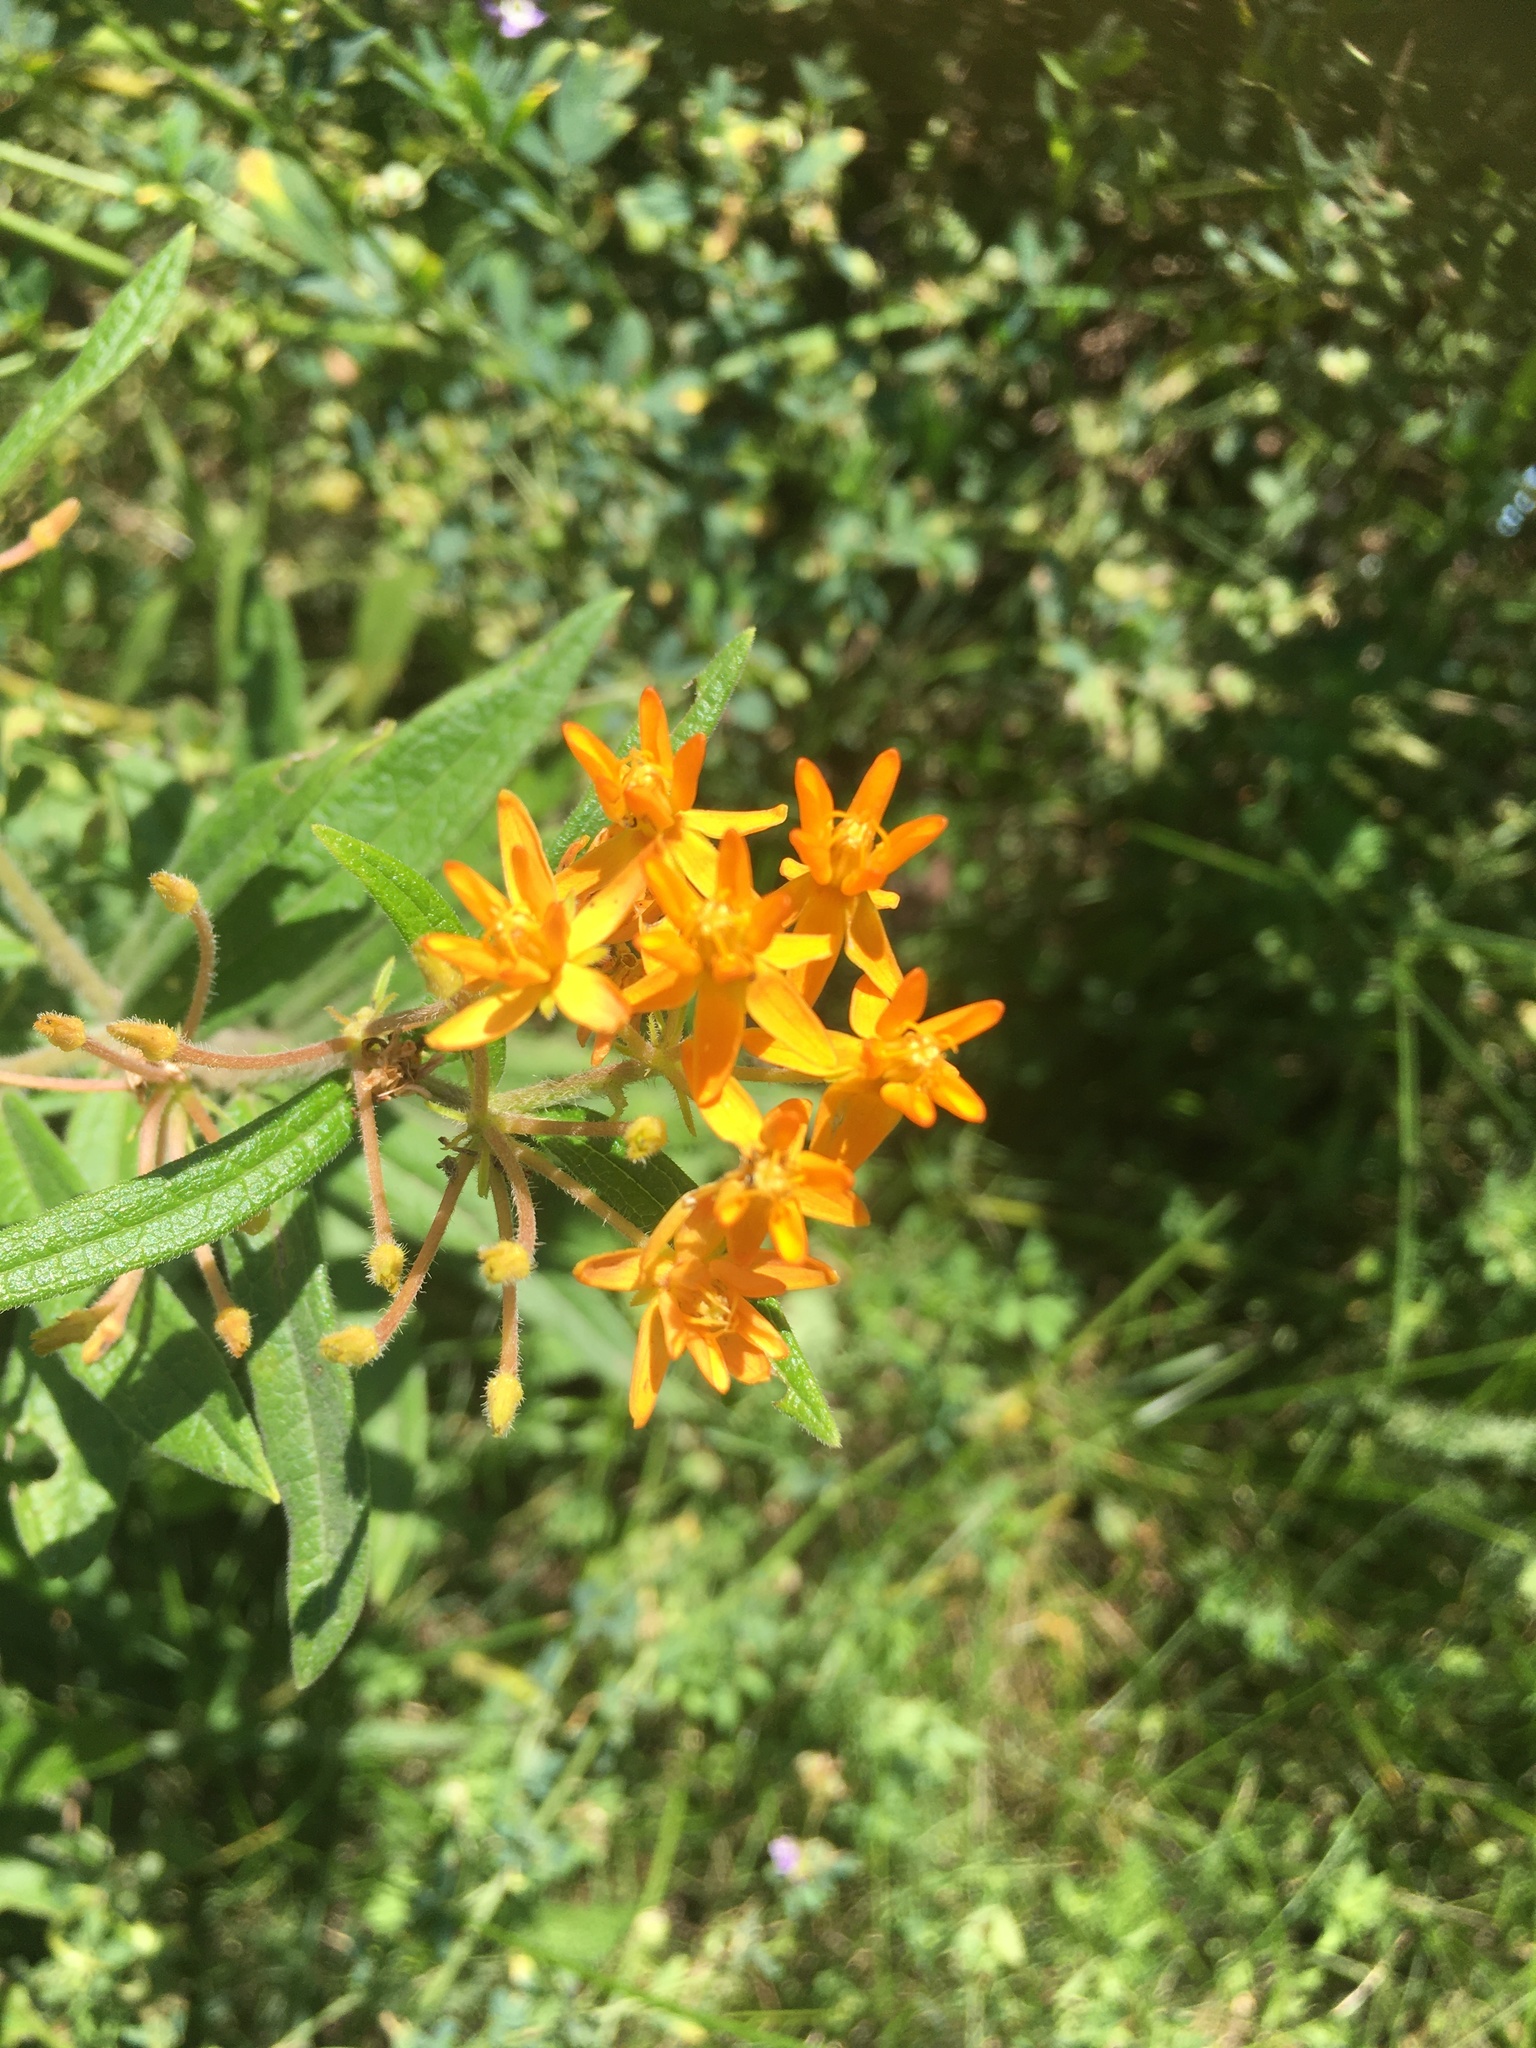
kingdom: Plantae
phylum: Tracheophyta
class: Magnoliopsida
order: Gentianales
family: Apocynaceae
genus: Asclepias
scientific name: Asclepias tuberosa
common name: Butterfly milkweed
